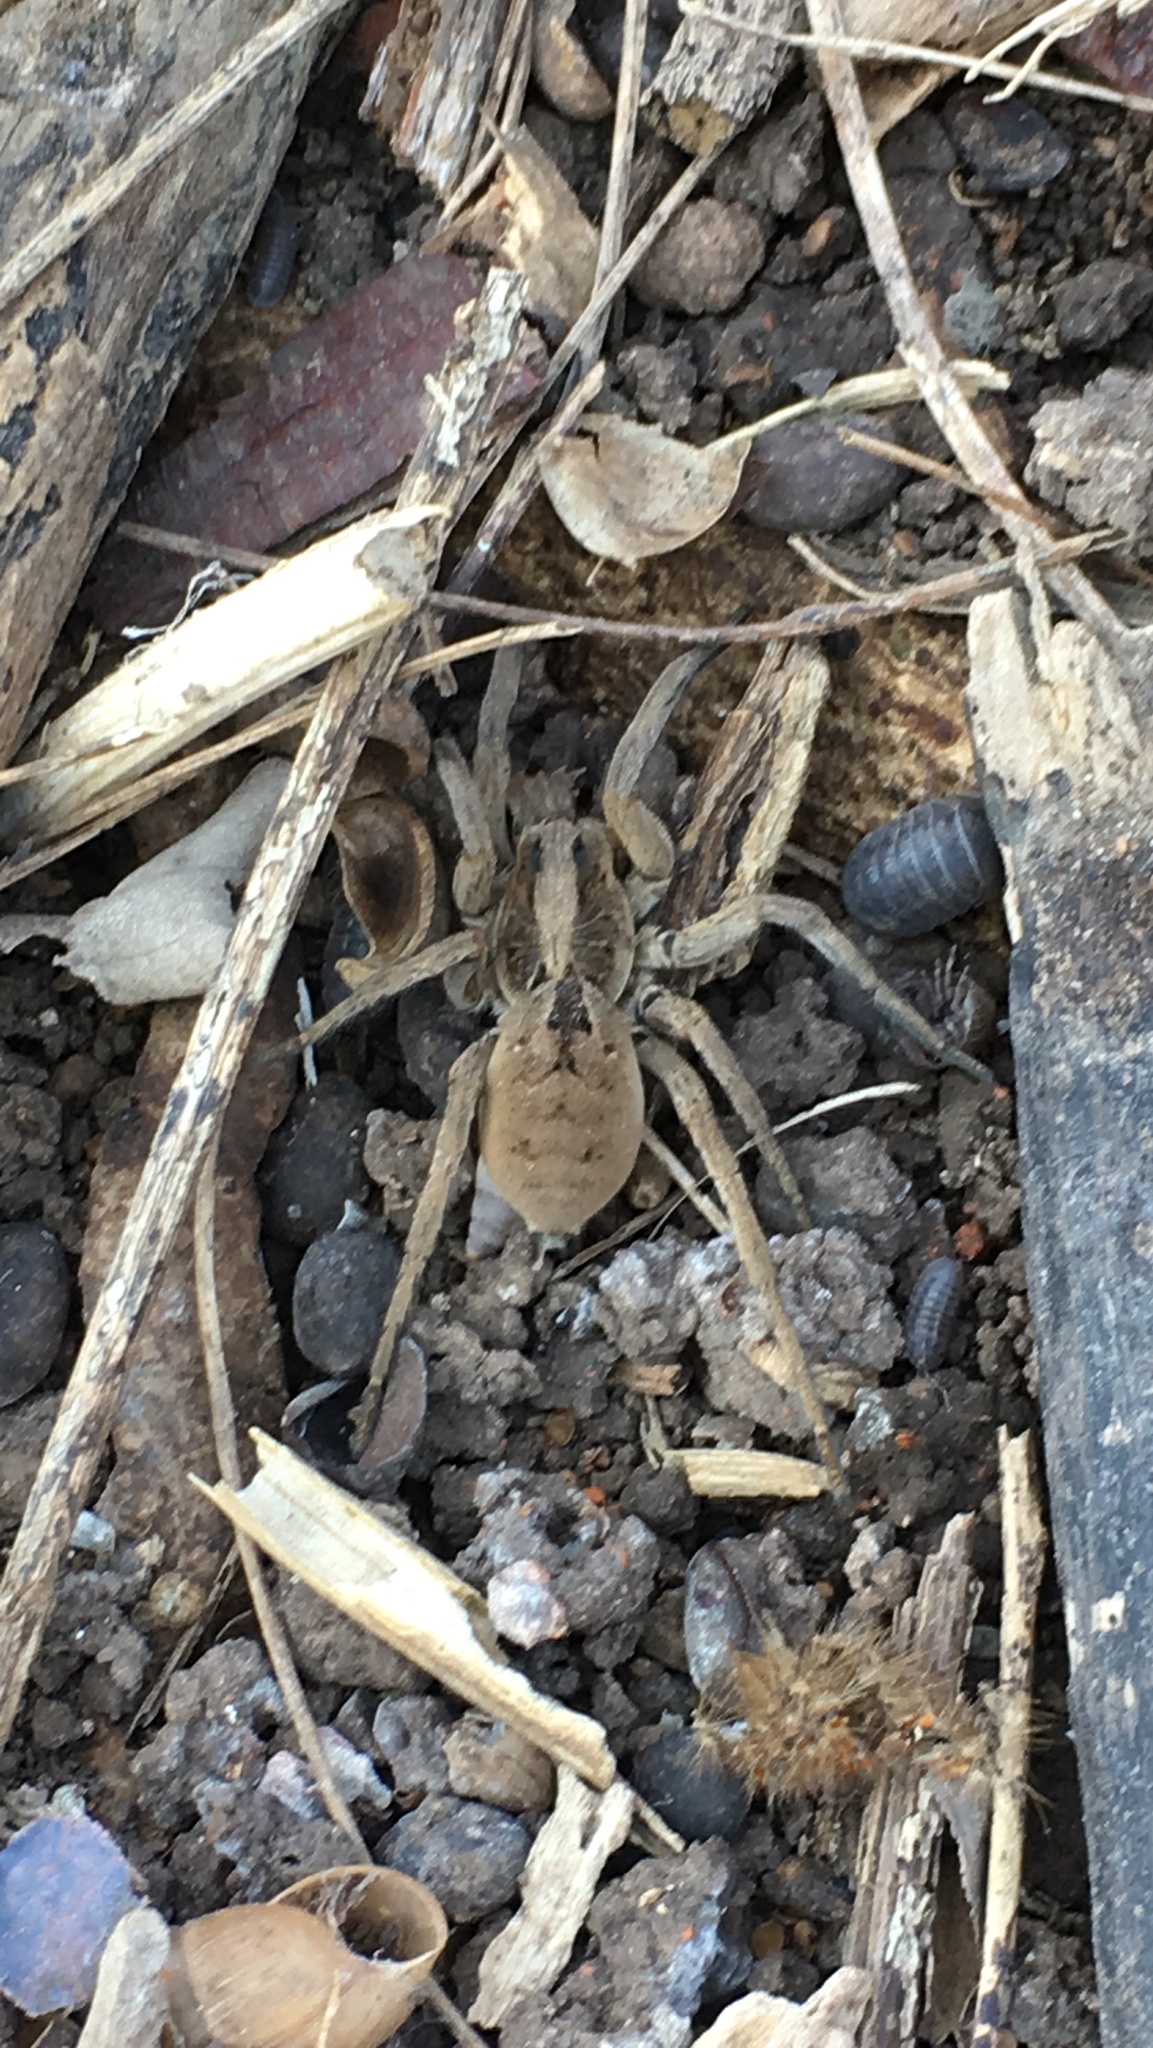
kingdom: Animalia
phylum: Arthropoda
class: Arachnida
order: Araneae
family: Lycosidae
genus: Lycosa
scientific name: Lycosa erythrognatha
